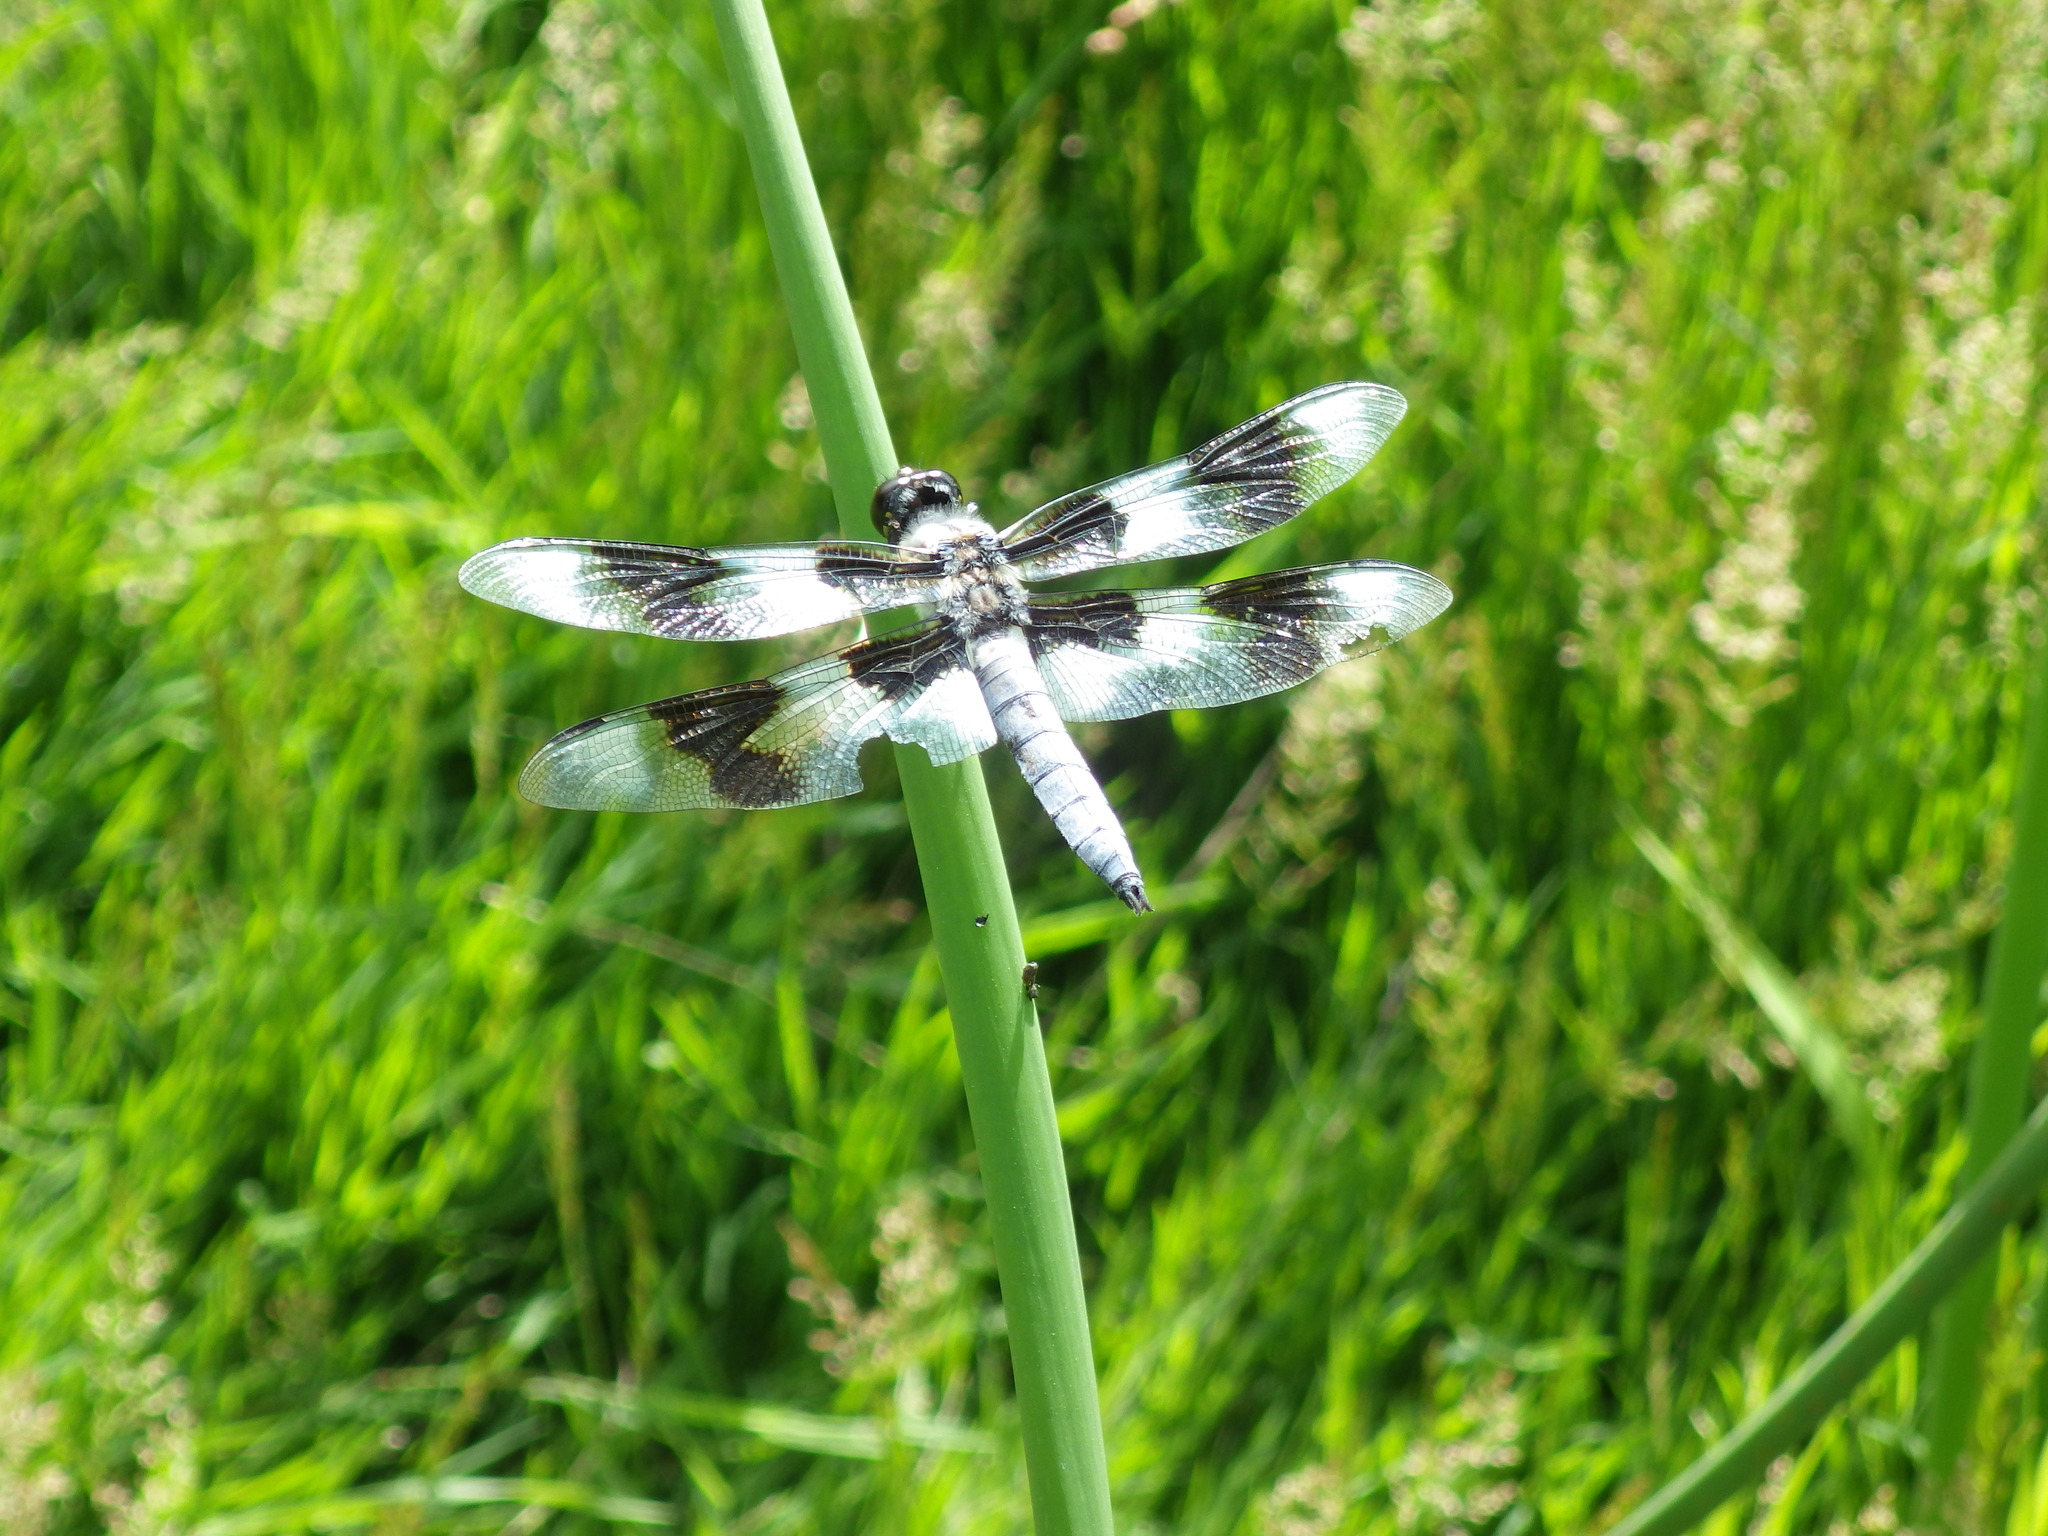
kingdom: Animalia
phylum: Arthropoda
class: Insecta
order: Odonata
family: Libellulidae
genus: Libellula
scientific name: Libellula forensis
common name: Eight-spotted skimmer
